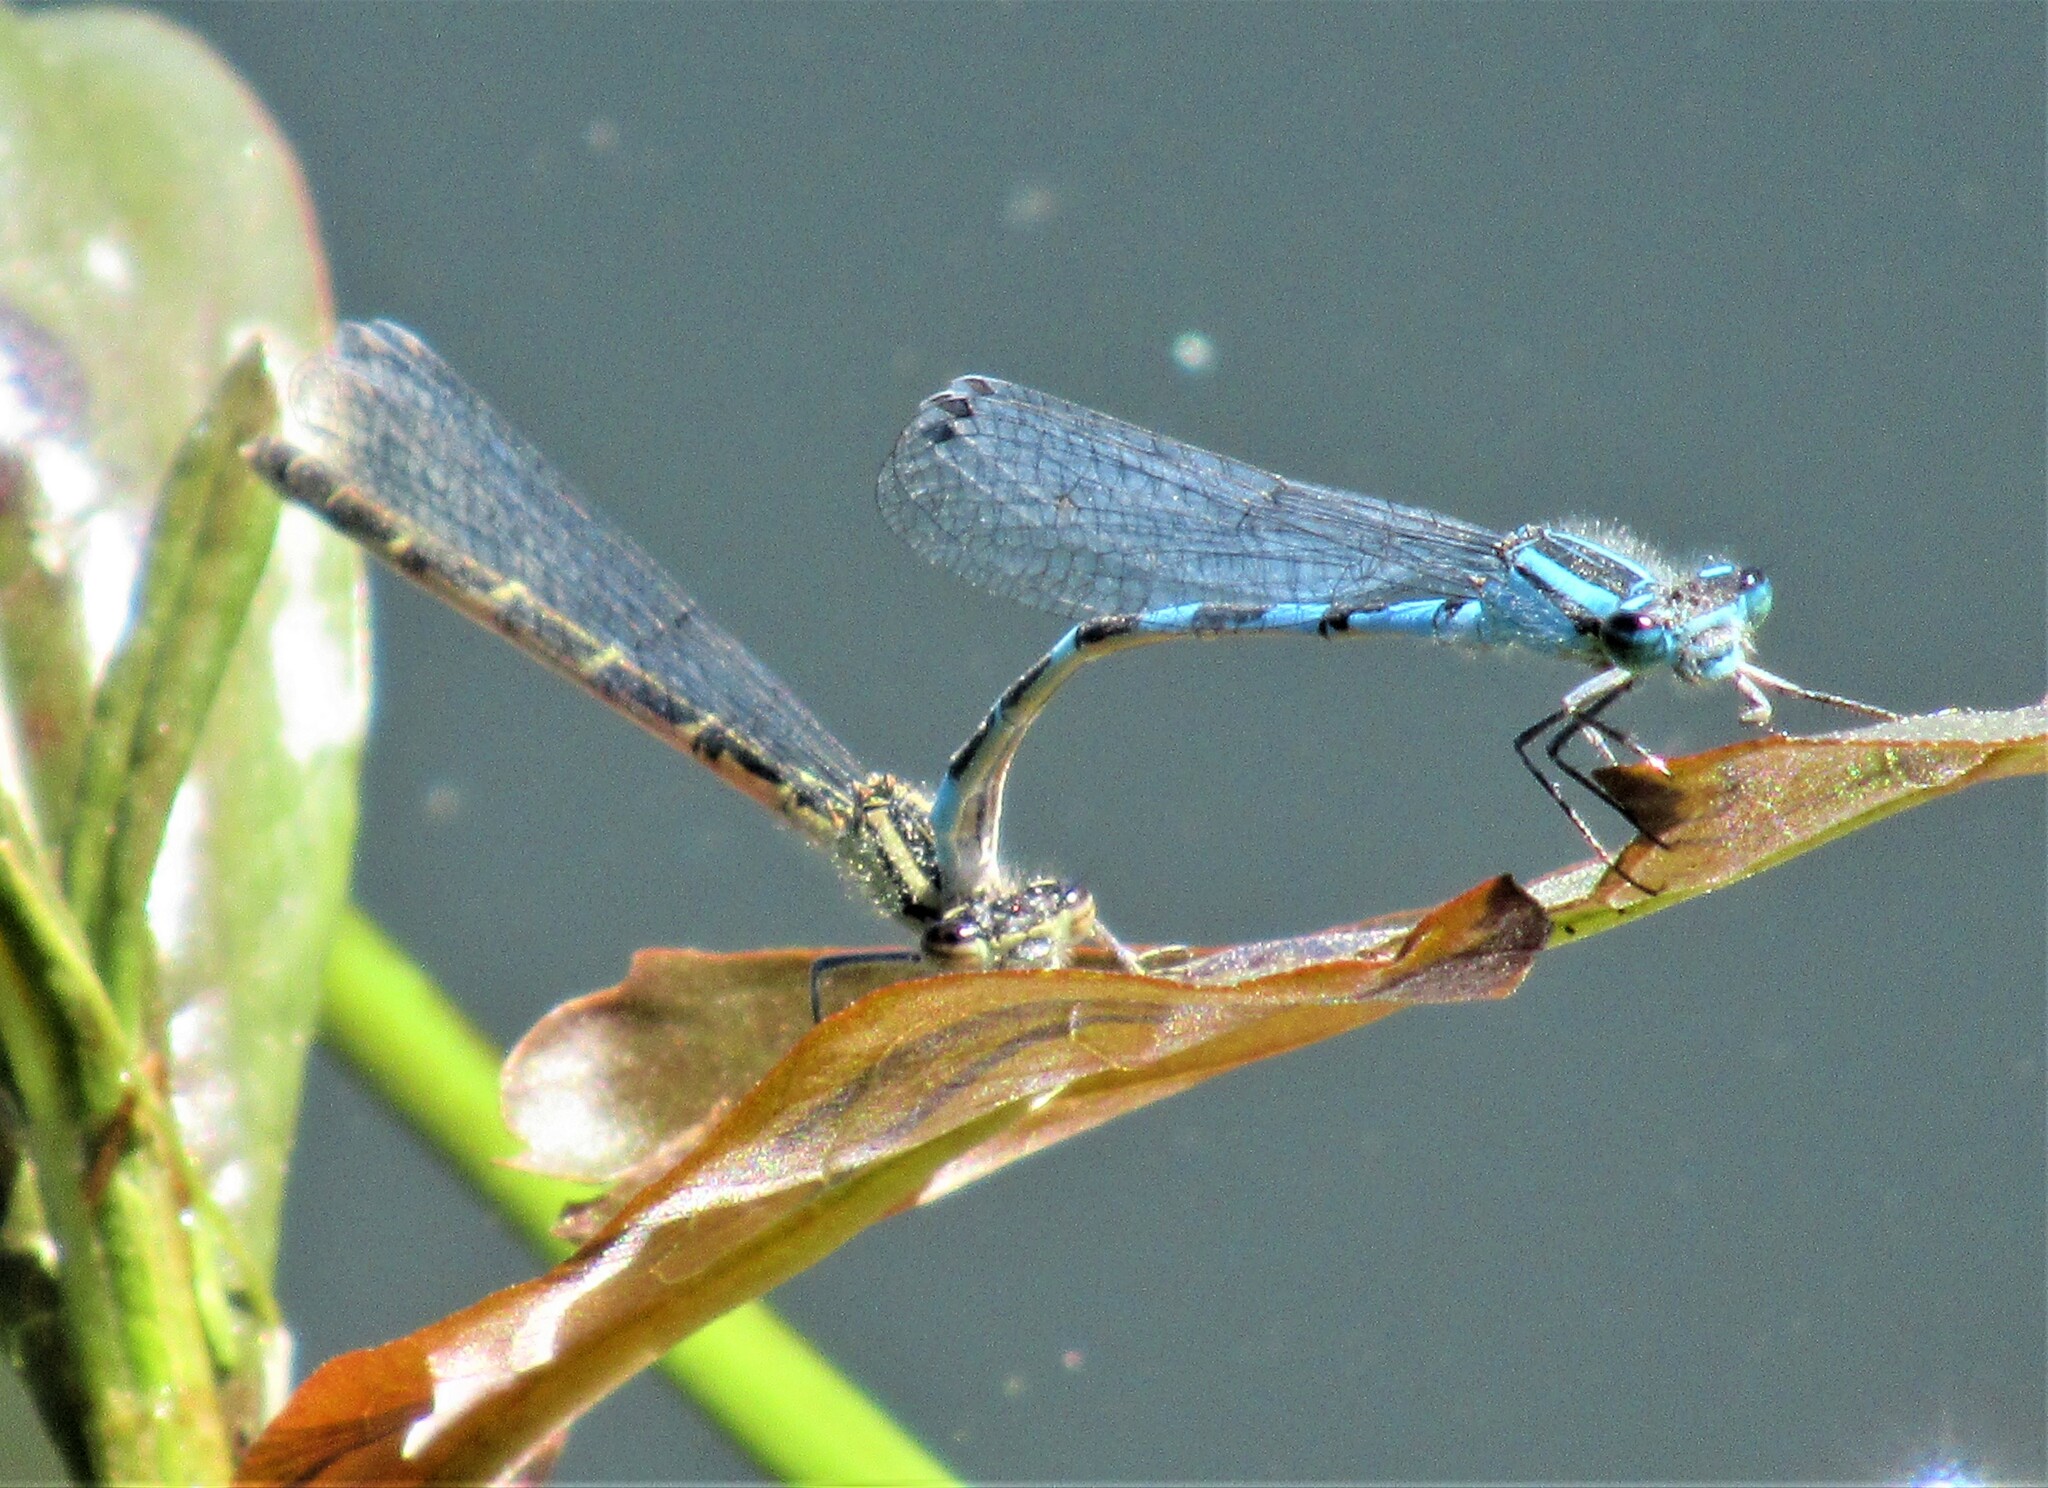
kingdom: Animalia
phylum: Arthropoda
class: Insecta
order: Odonata
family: Coenagrionidae
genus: Enallagma
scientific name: Enallagma carunculatum
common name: Tule bluet
